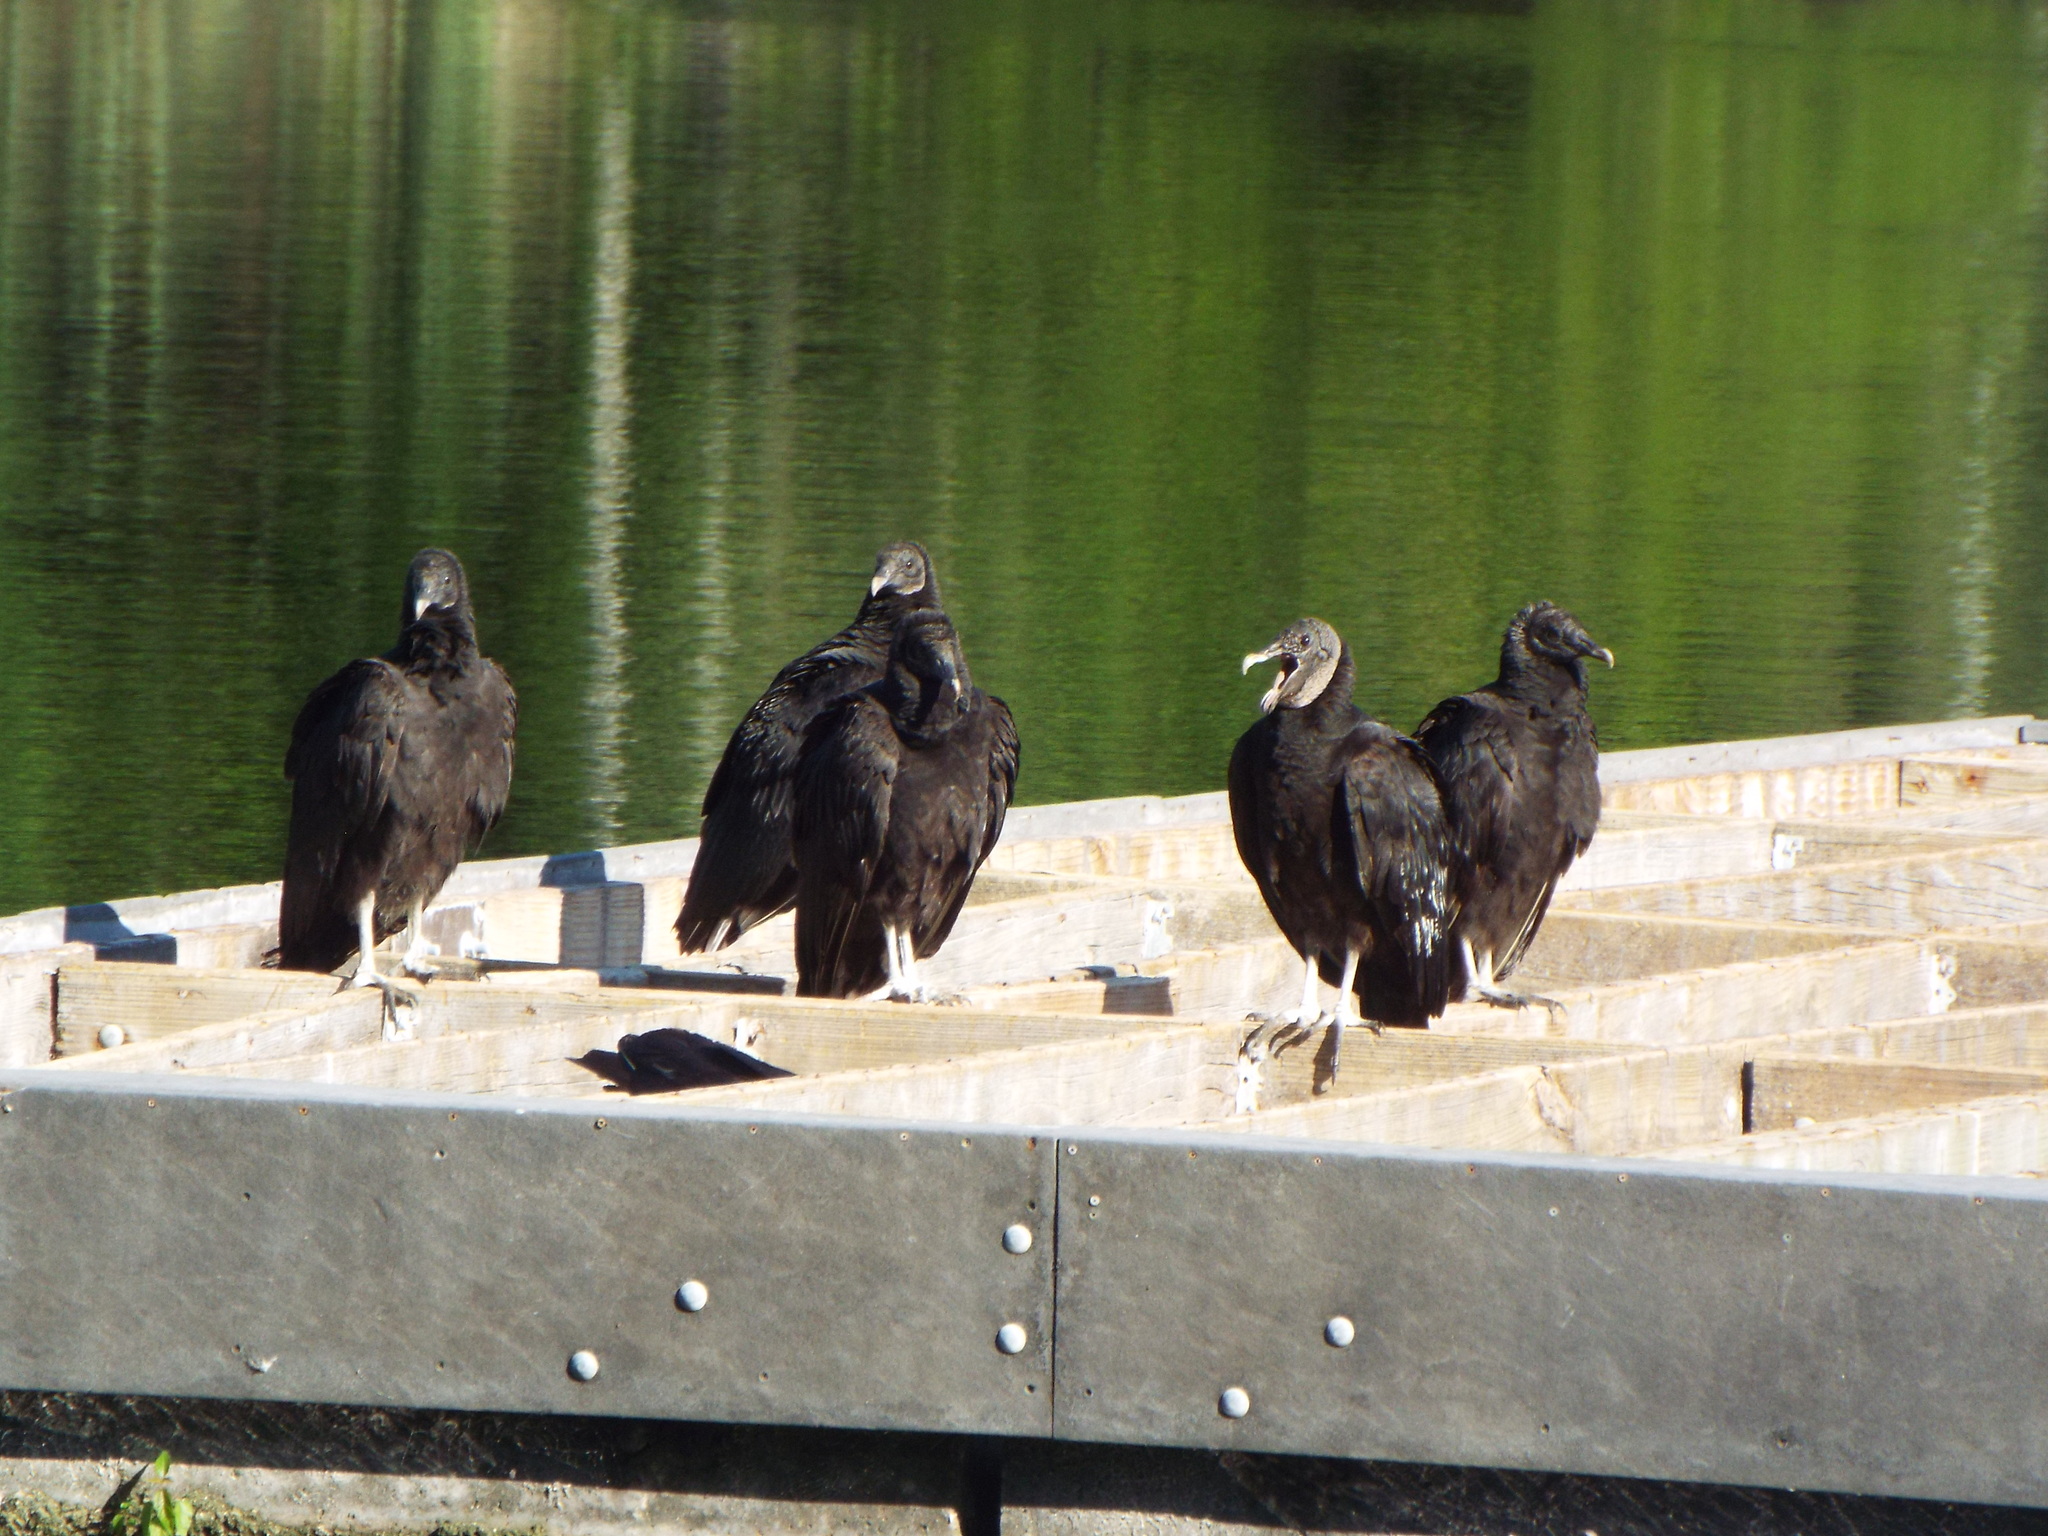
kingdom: Animalia
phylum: Chordata
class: Aves
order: Accipitriformes
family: Cathartidae
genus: Coragyps
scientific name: Coragyps atratus
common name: Black vulture
